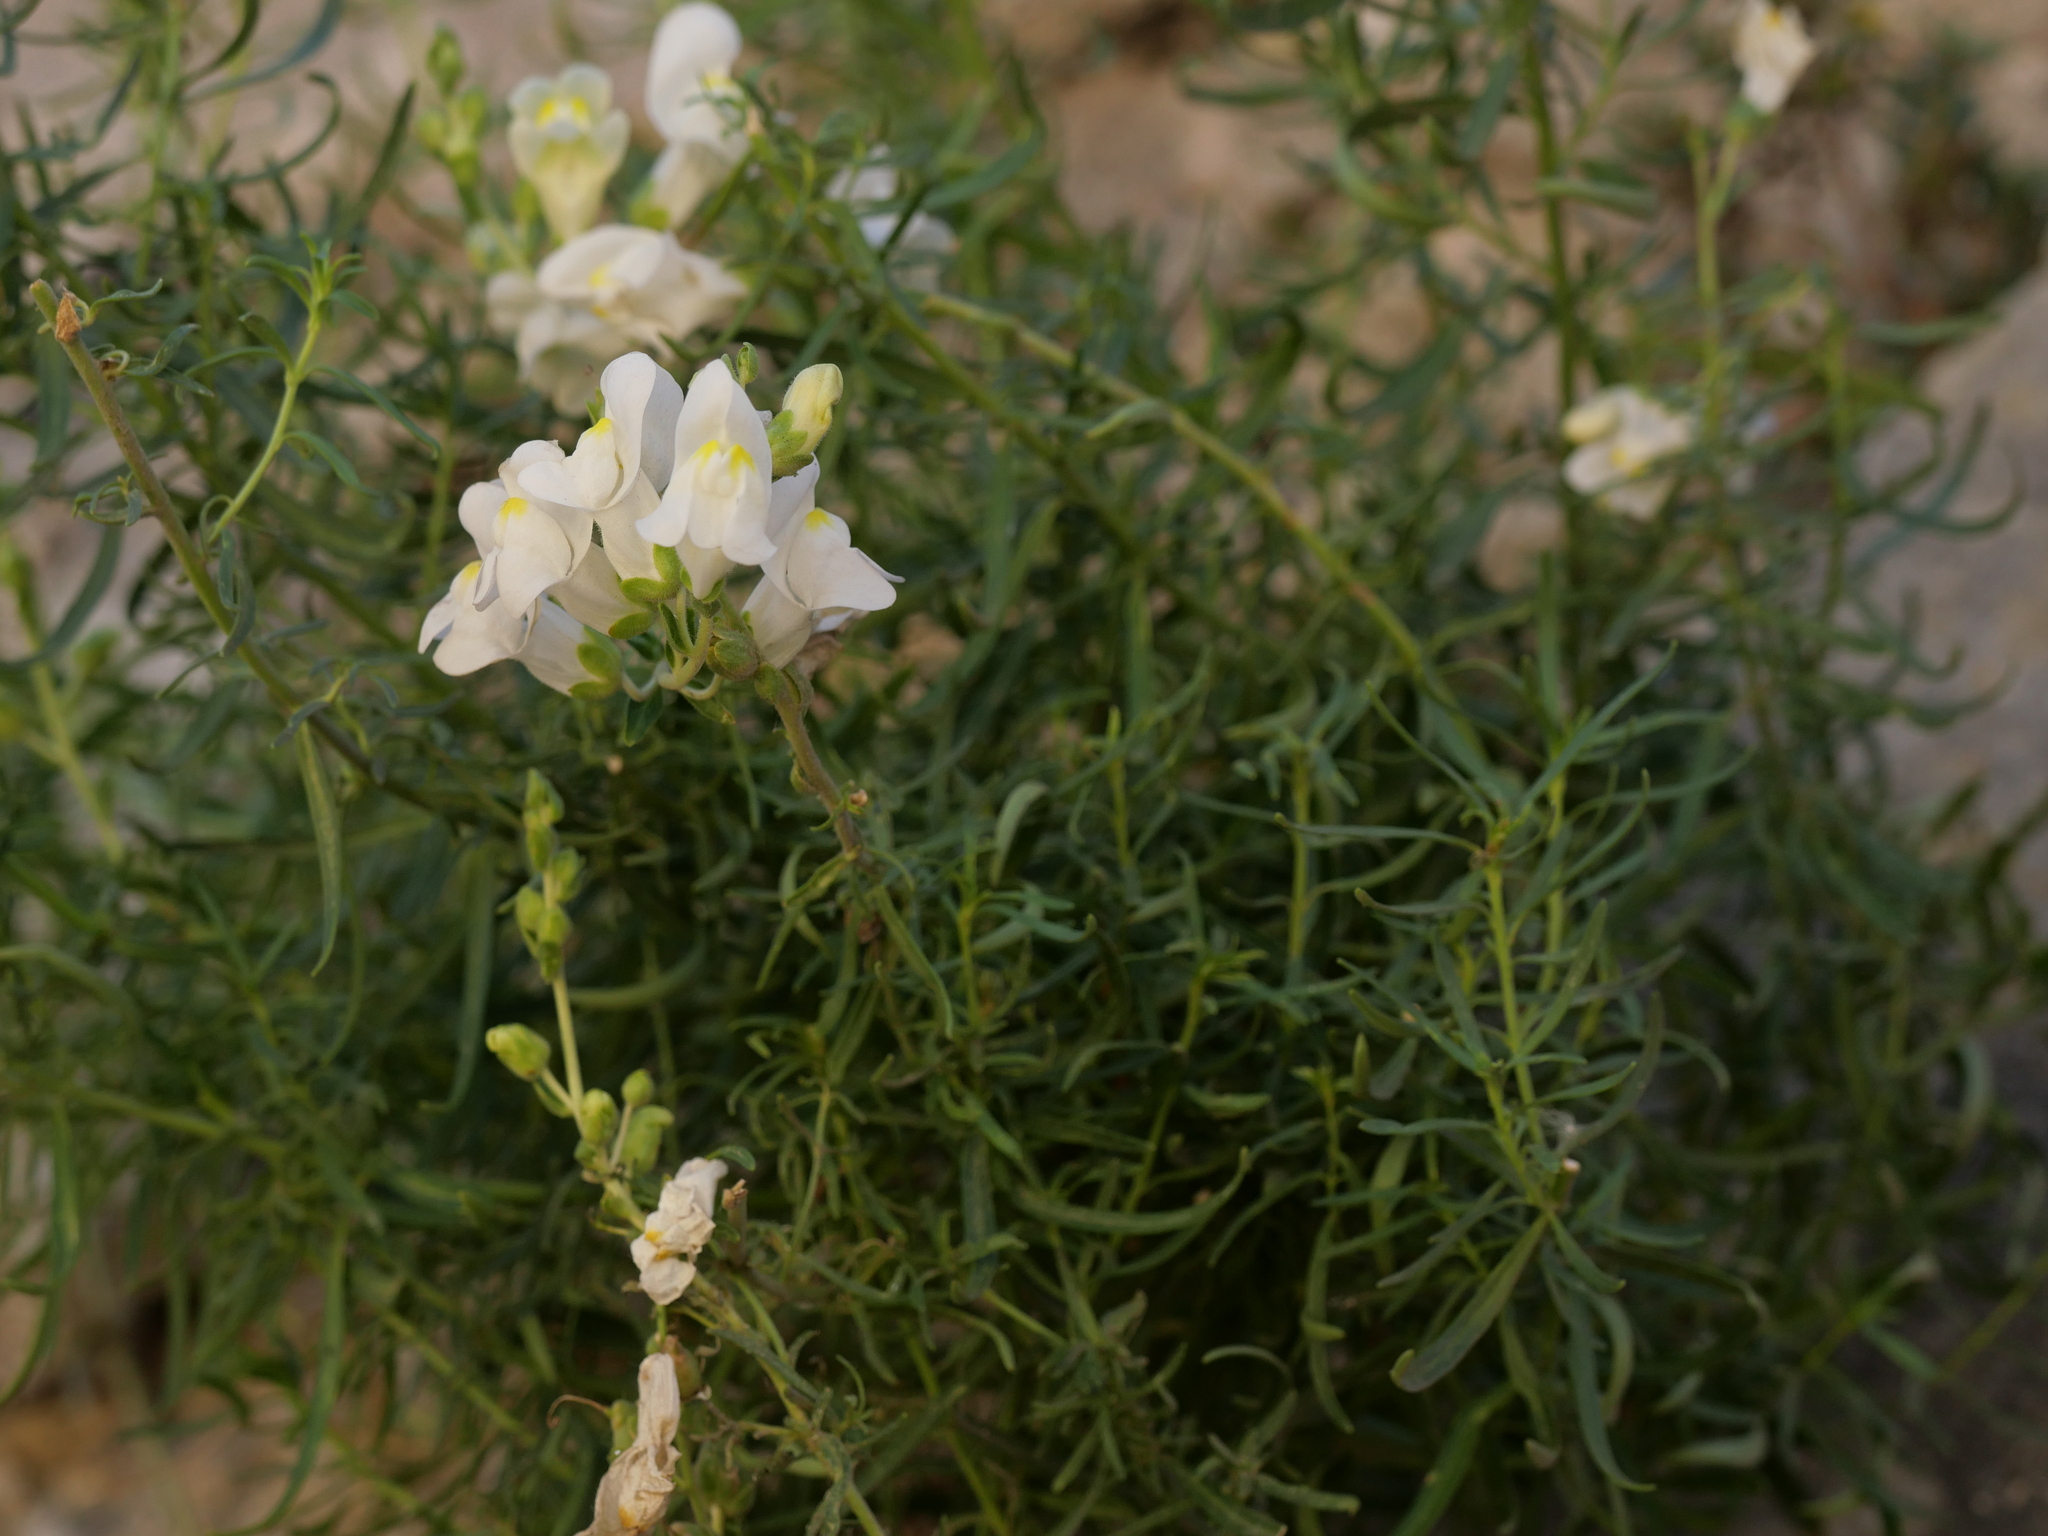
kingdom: Plantae
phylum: Tracheophyta
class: Magnoliopsida
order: Lamiales
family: Plantaginaceae
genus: Antirrhinum
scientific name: Antirrhinum tortuosum
